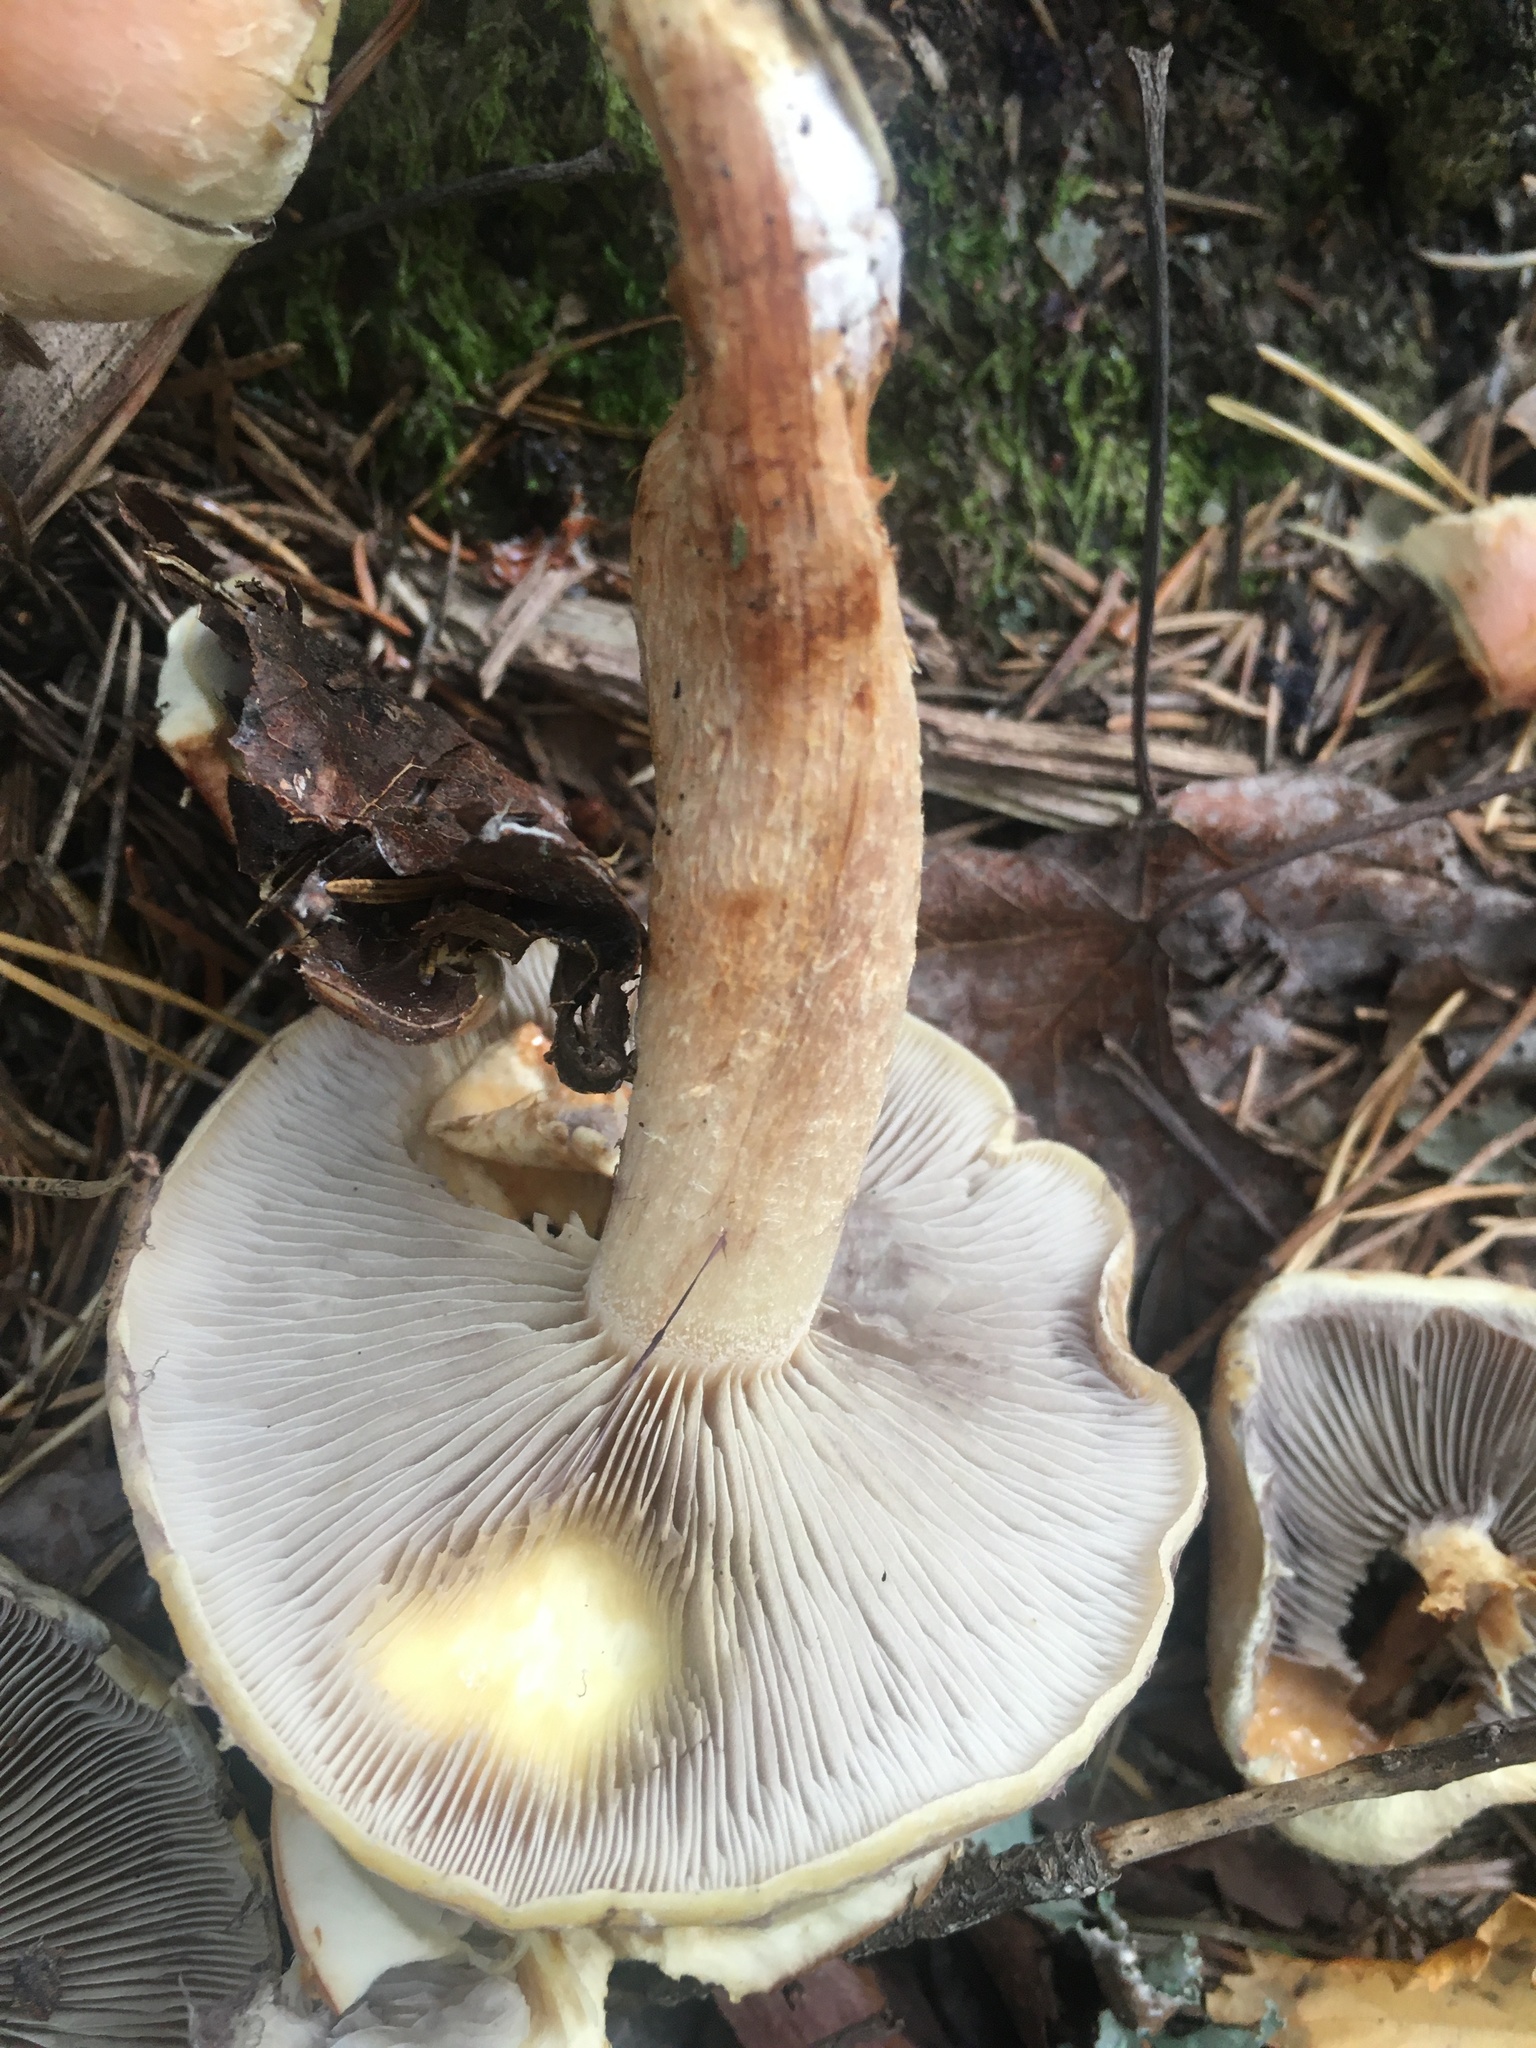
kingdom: Fungi
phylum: Basidiomycota
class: Agaricomycetes
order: Agaricales
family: Strophariaceae
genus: Hypholoma
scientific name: Hypholoma lateritium
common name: Brick caps
